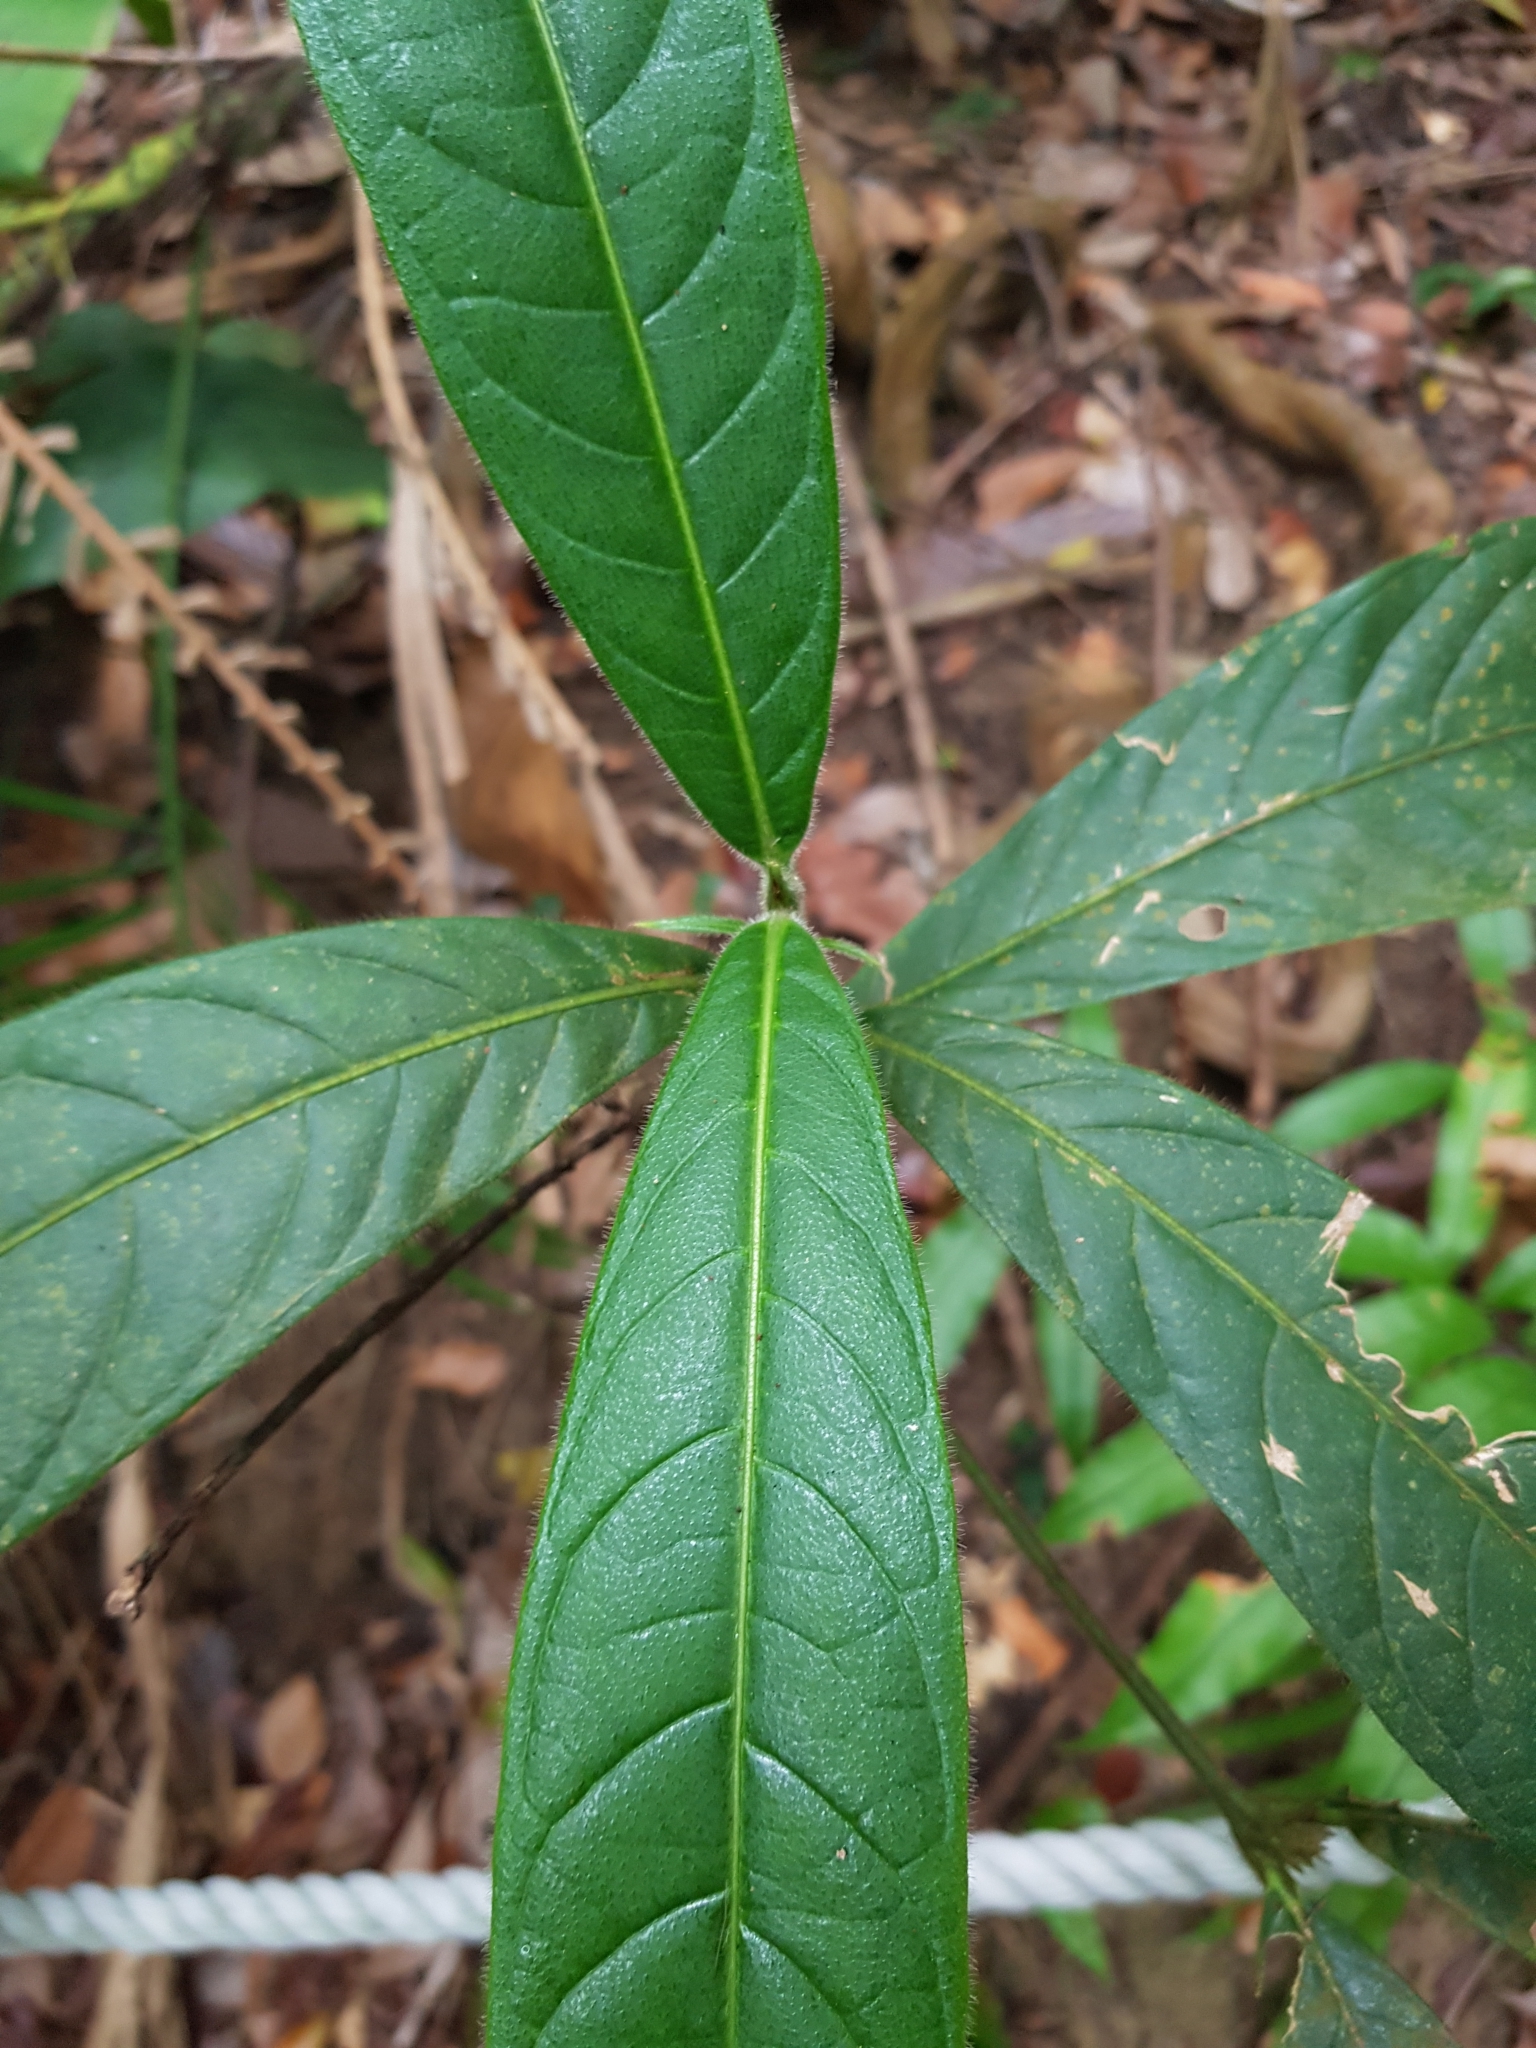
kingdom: Plantae
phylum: Tracheophyta
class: Magnoliopsida
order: Gentianales
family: Rubiaceae
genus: Singaporandia
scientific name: Singaporandia macrophylla
